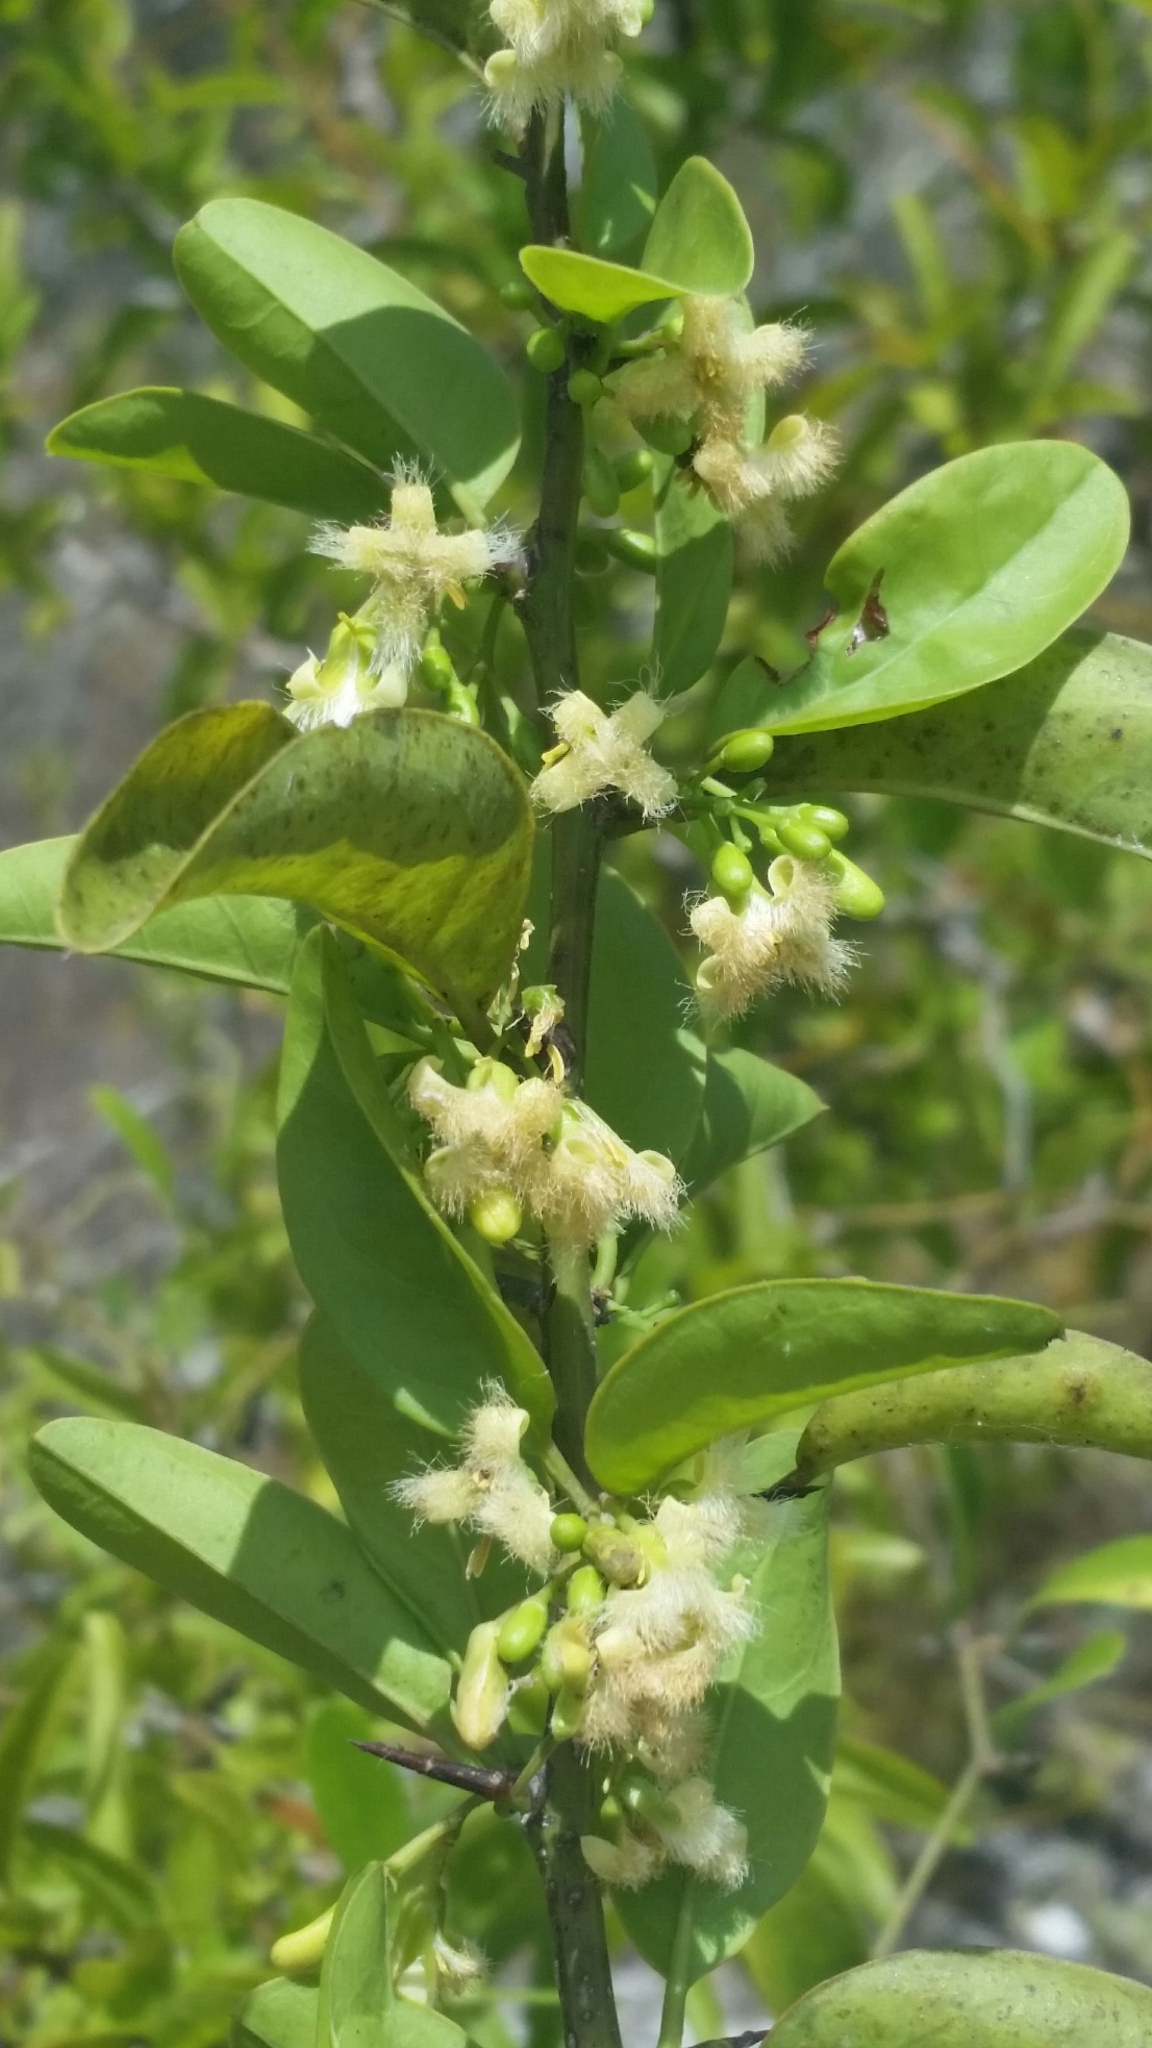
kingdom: Plantae
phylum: Tracheophyta
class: Magnoliopsida
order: Santalales
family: Ximeniaceae
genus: Ximenia
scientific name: Ximenia americana
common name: Tallowwood
